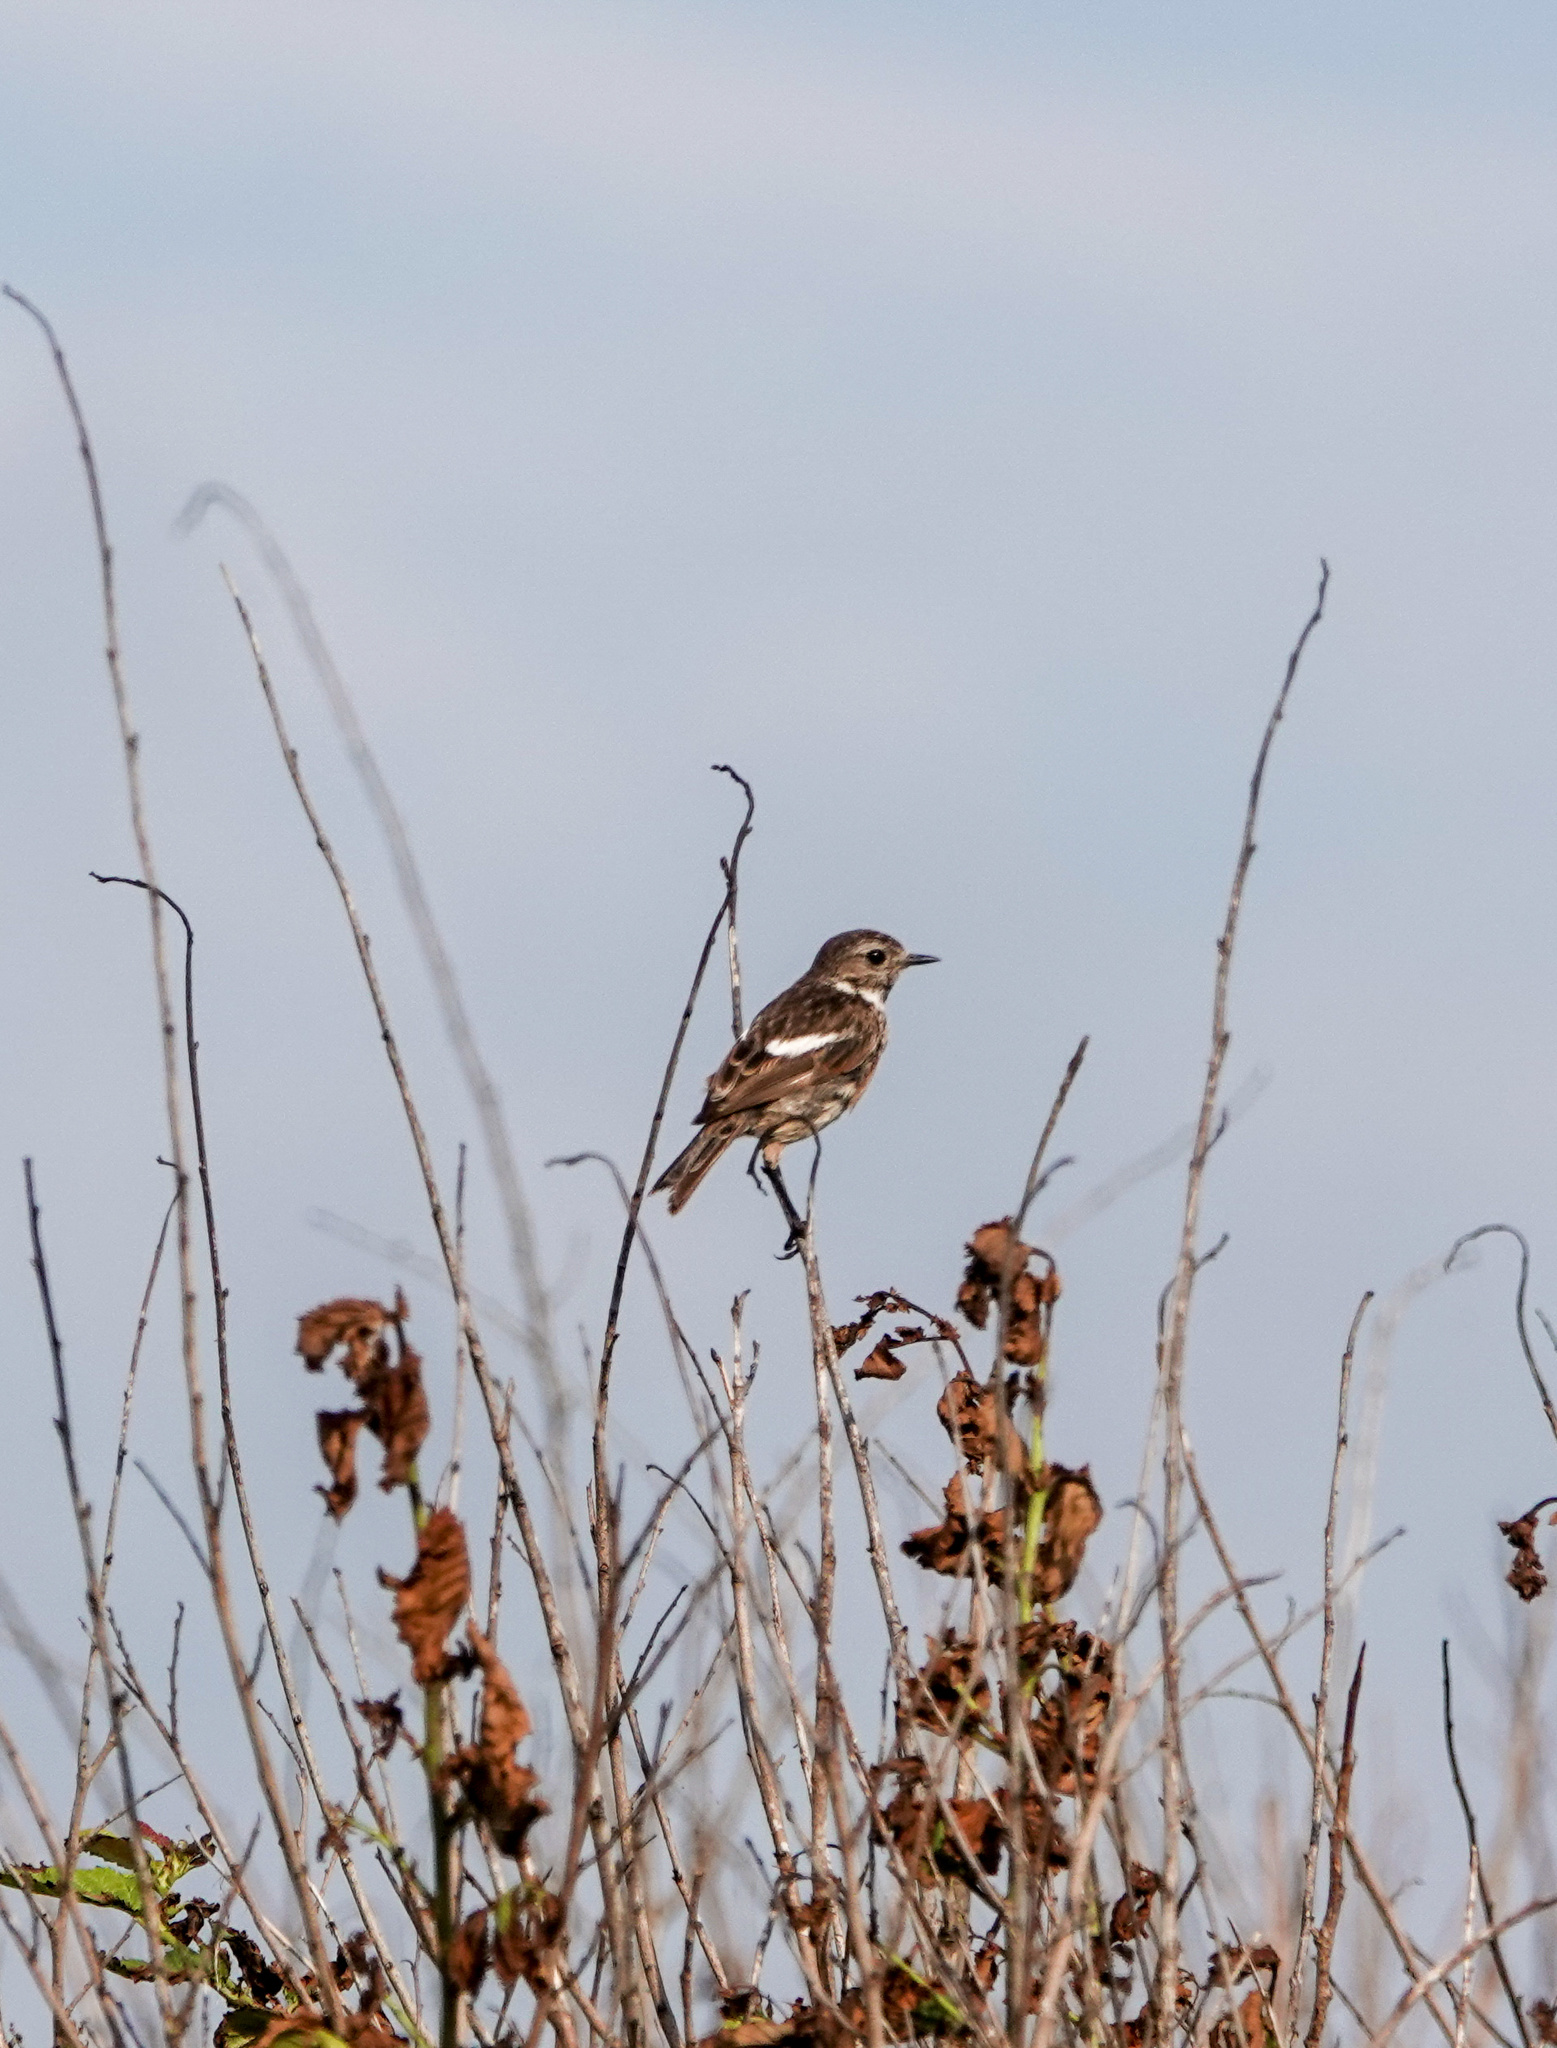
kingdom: Animalia
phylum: Chordata
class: Aves
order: Passeriformes
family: Muscicapidae
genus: Saxicola
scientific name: Saxicola rubicola
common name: European stonechat
